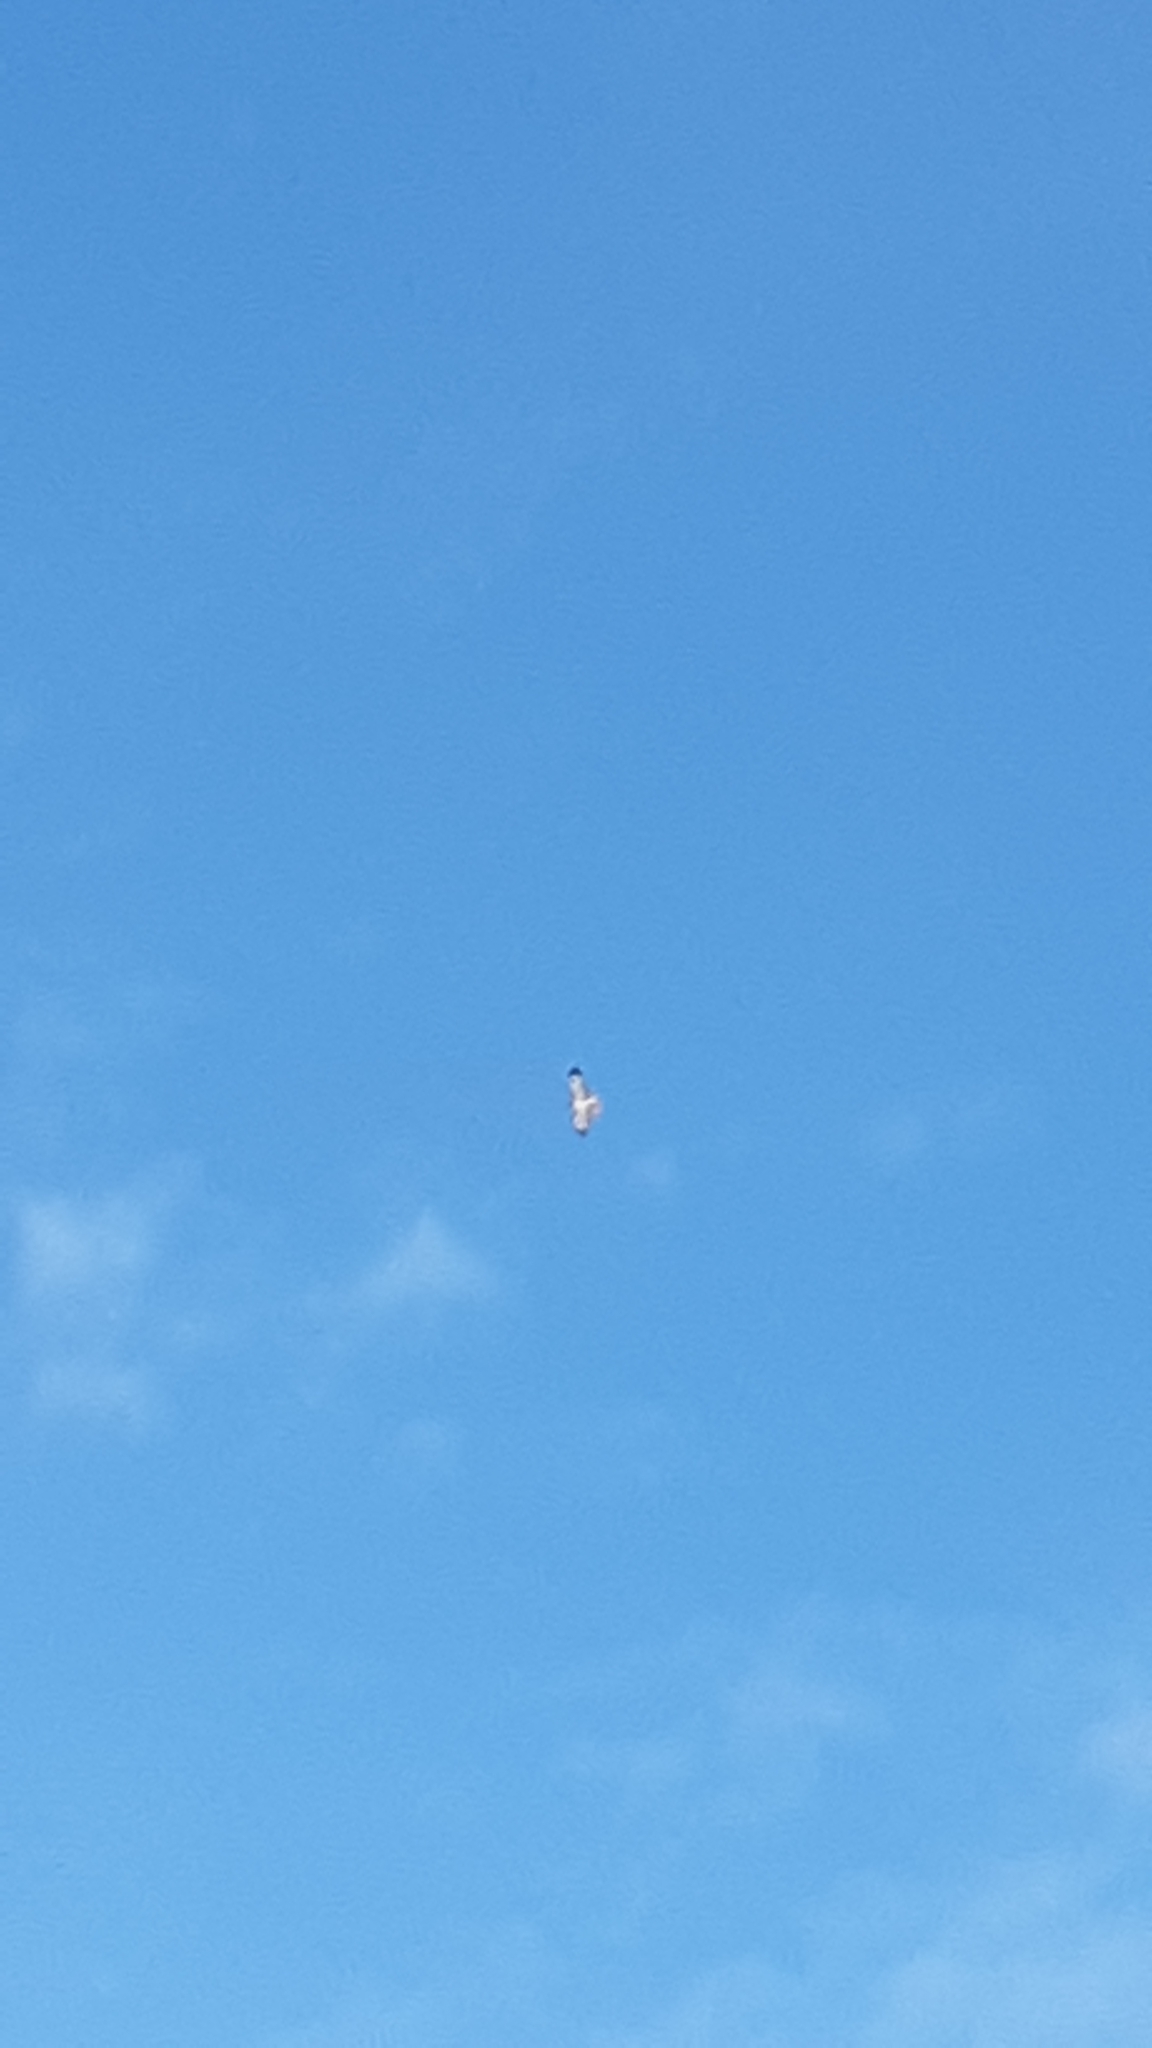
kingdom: Animalia
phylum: Chordata
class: Aves
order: Accipitriformes
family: Accipitridae
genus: Buteo
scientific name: Buteo jamaicensis
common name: Red-tailed hawk
